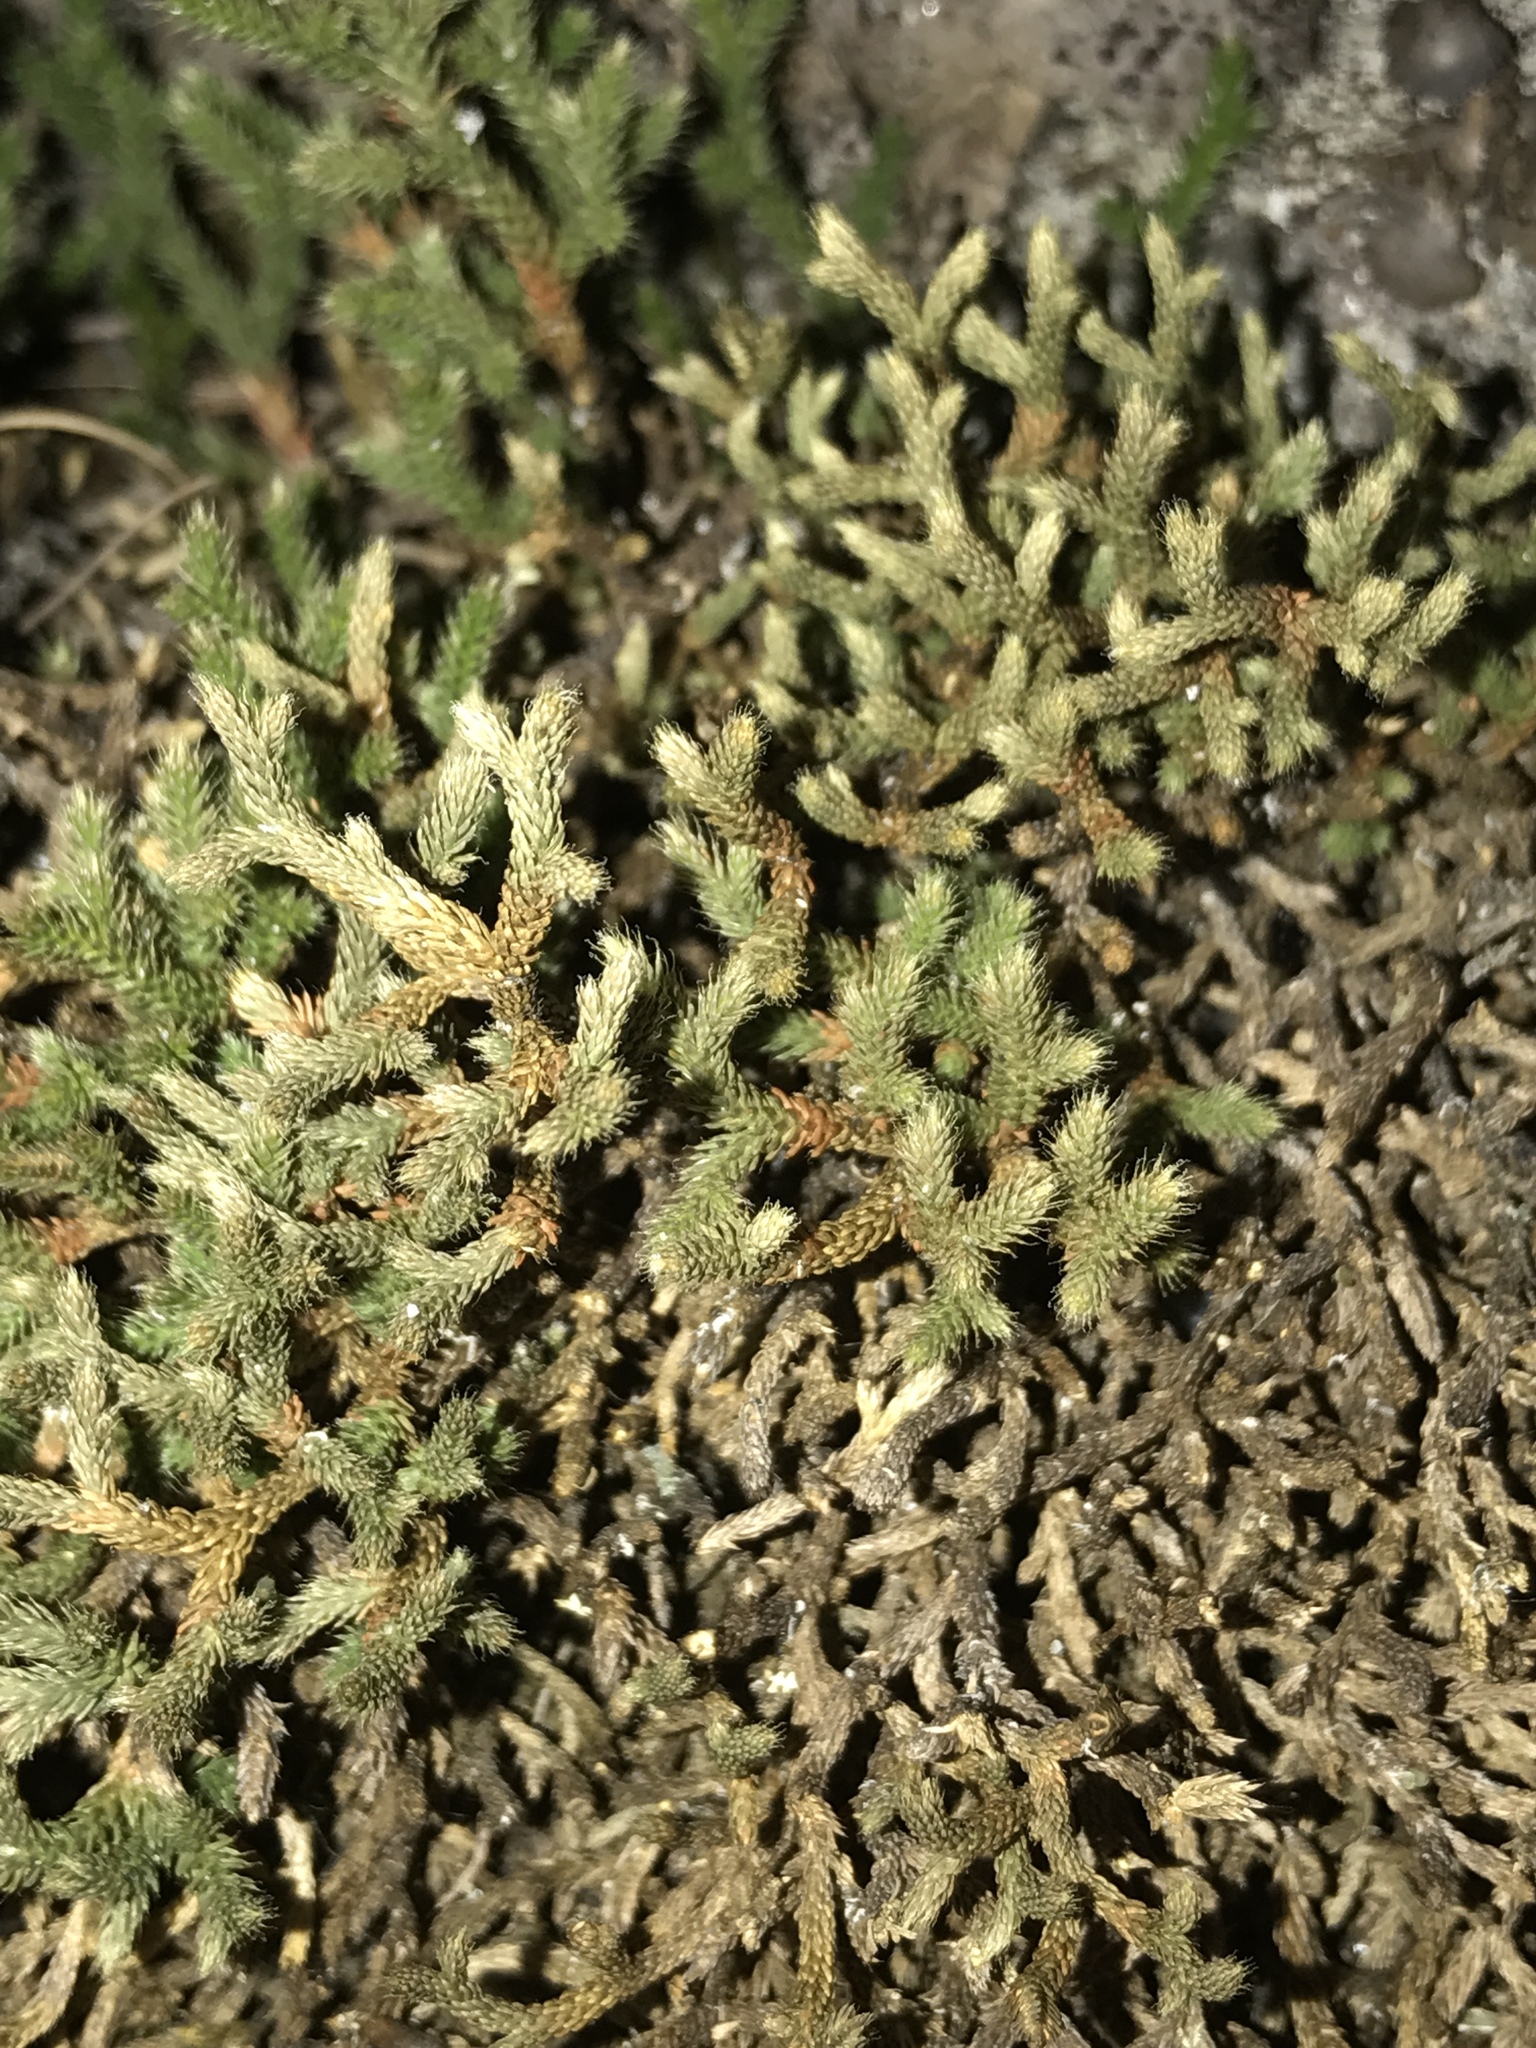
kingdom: Plantae
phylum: Tracheophyta
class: Lycopodiopsida
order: Selaginellales
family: Selaginellaceae
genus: Selaginella
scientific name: Selaginella tortipila
